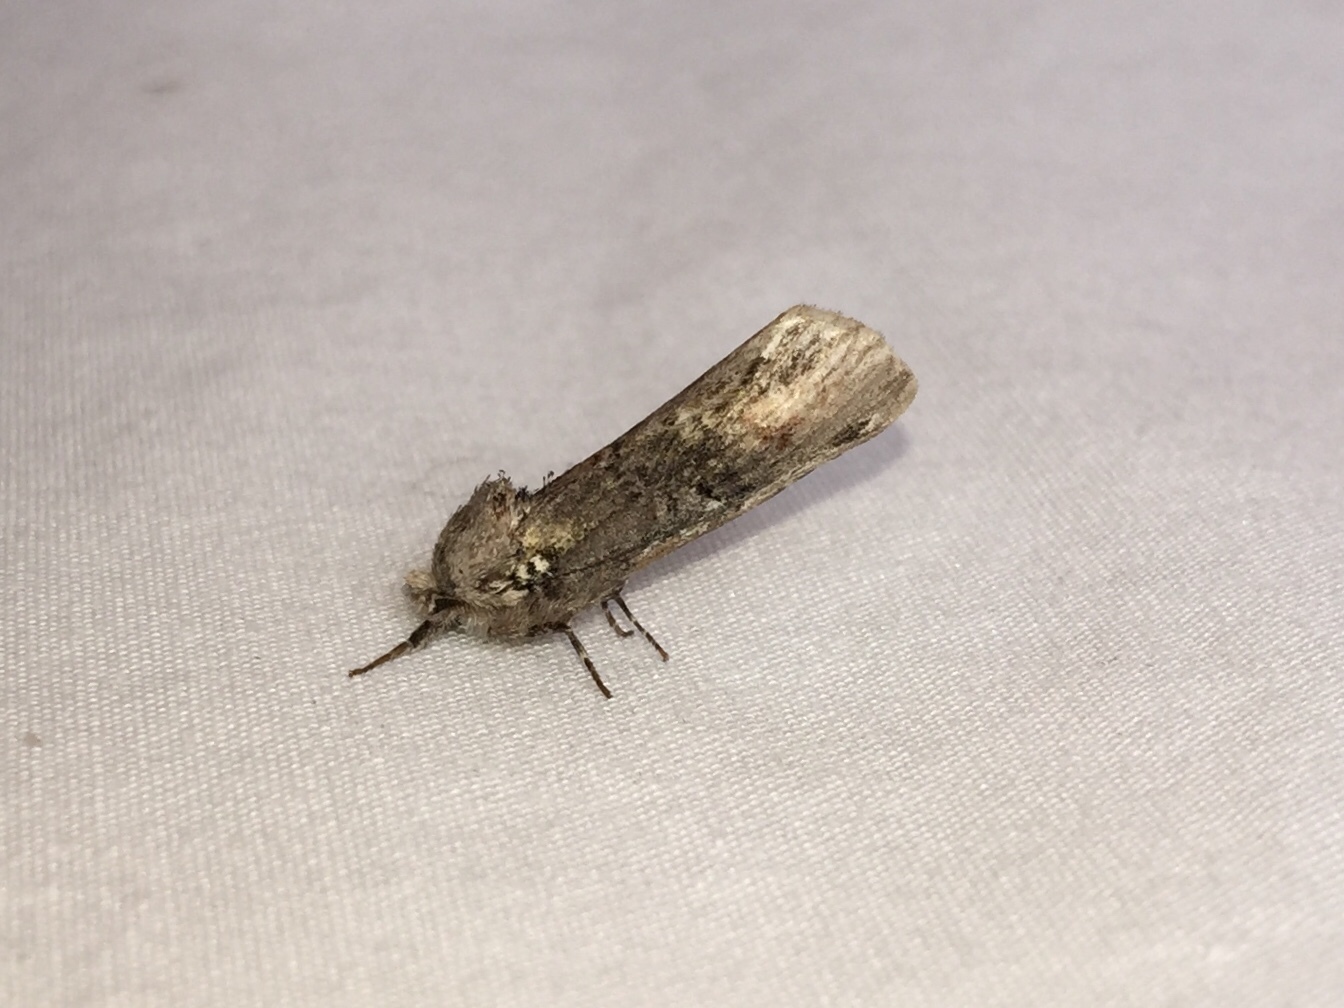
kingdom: Animalia
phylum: Arthropoda
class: Insecta
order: Lepidoptera
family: Notodontidae
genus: Schizura
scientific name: Schizura
